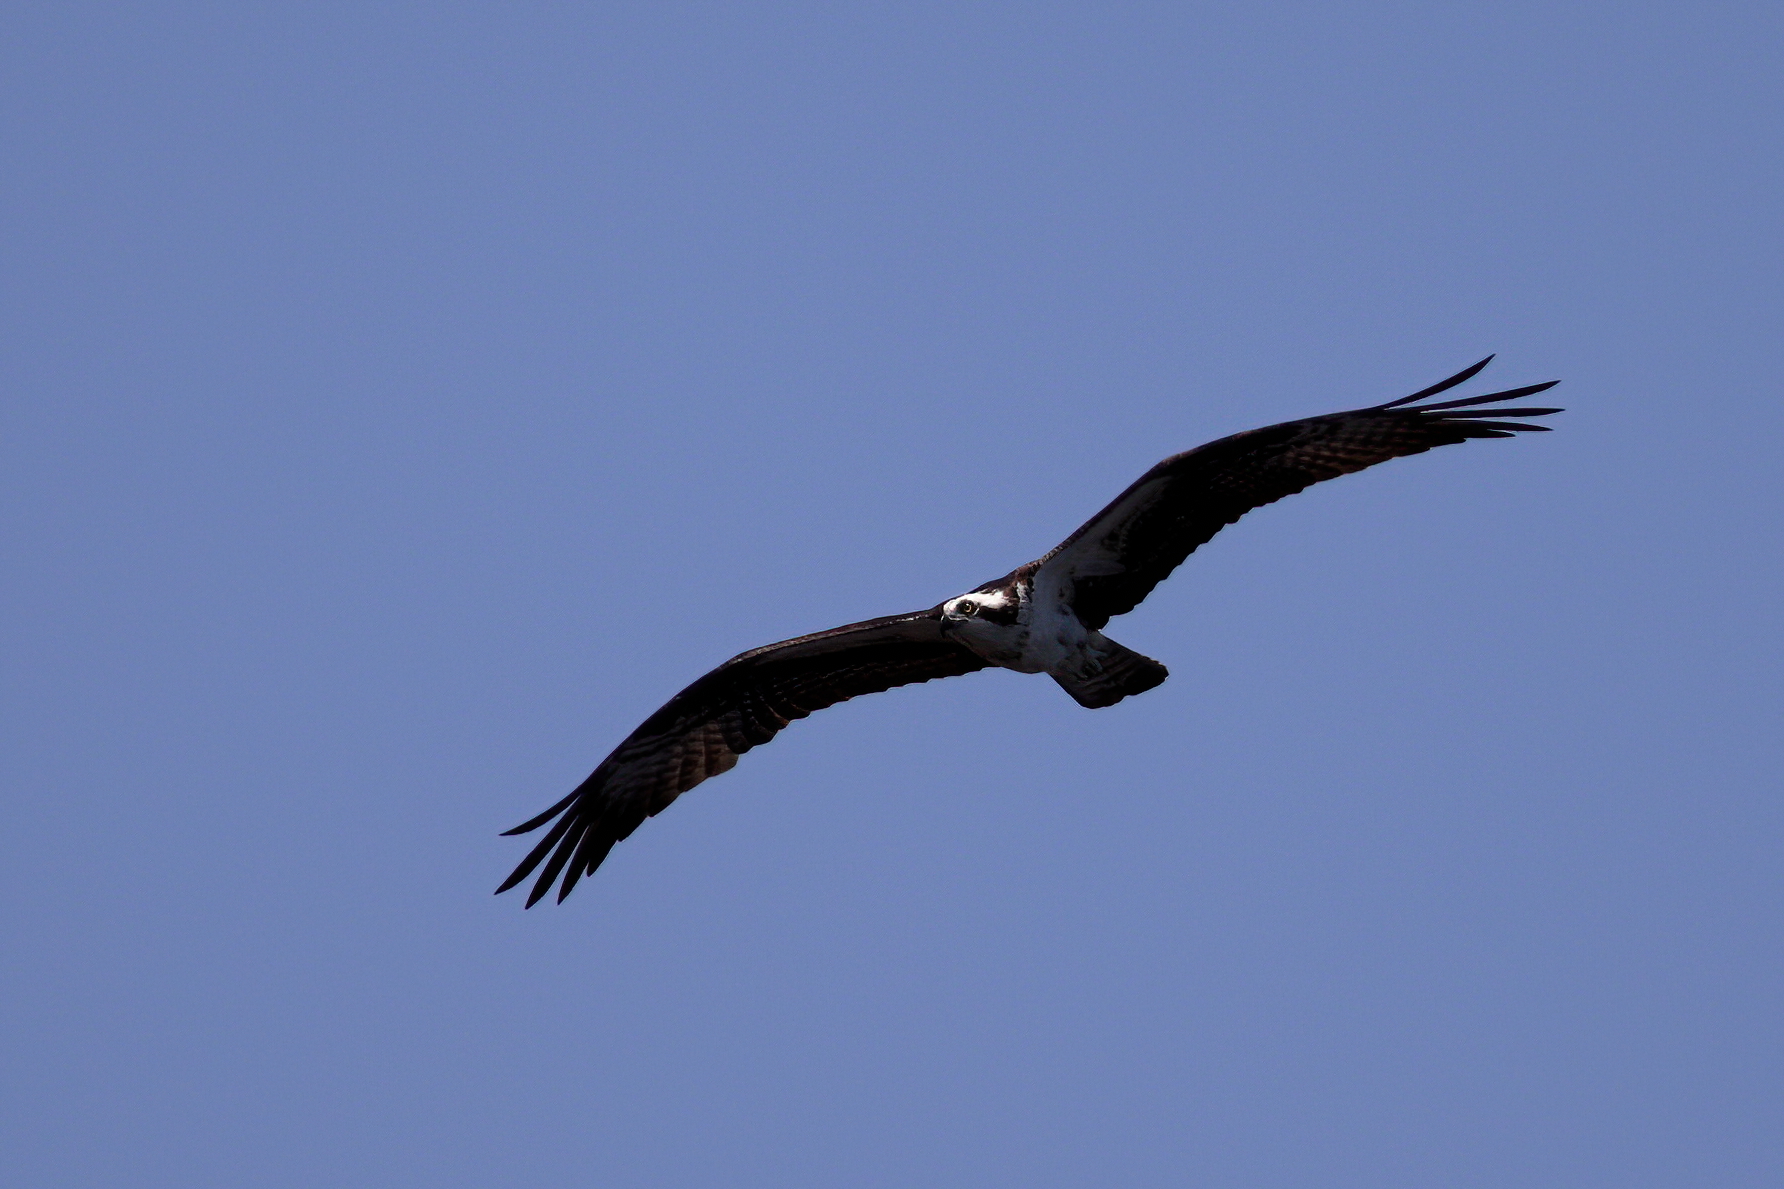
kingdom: Animalia
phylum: Chordata
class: Aves
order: Accipitriformes
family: Pandionidae
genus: Pandion
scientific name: Pandion haliaetus
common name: Osprey
